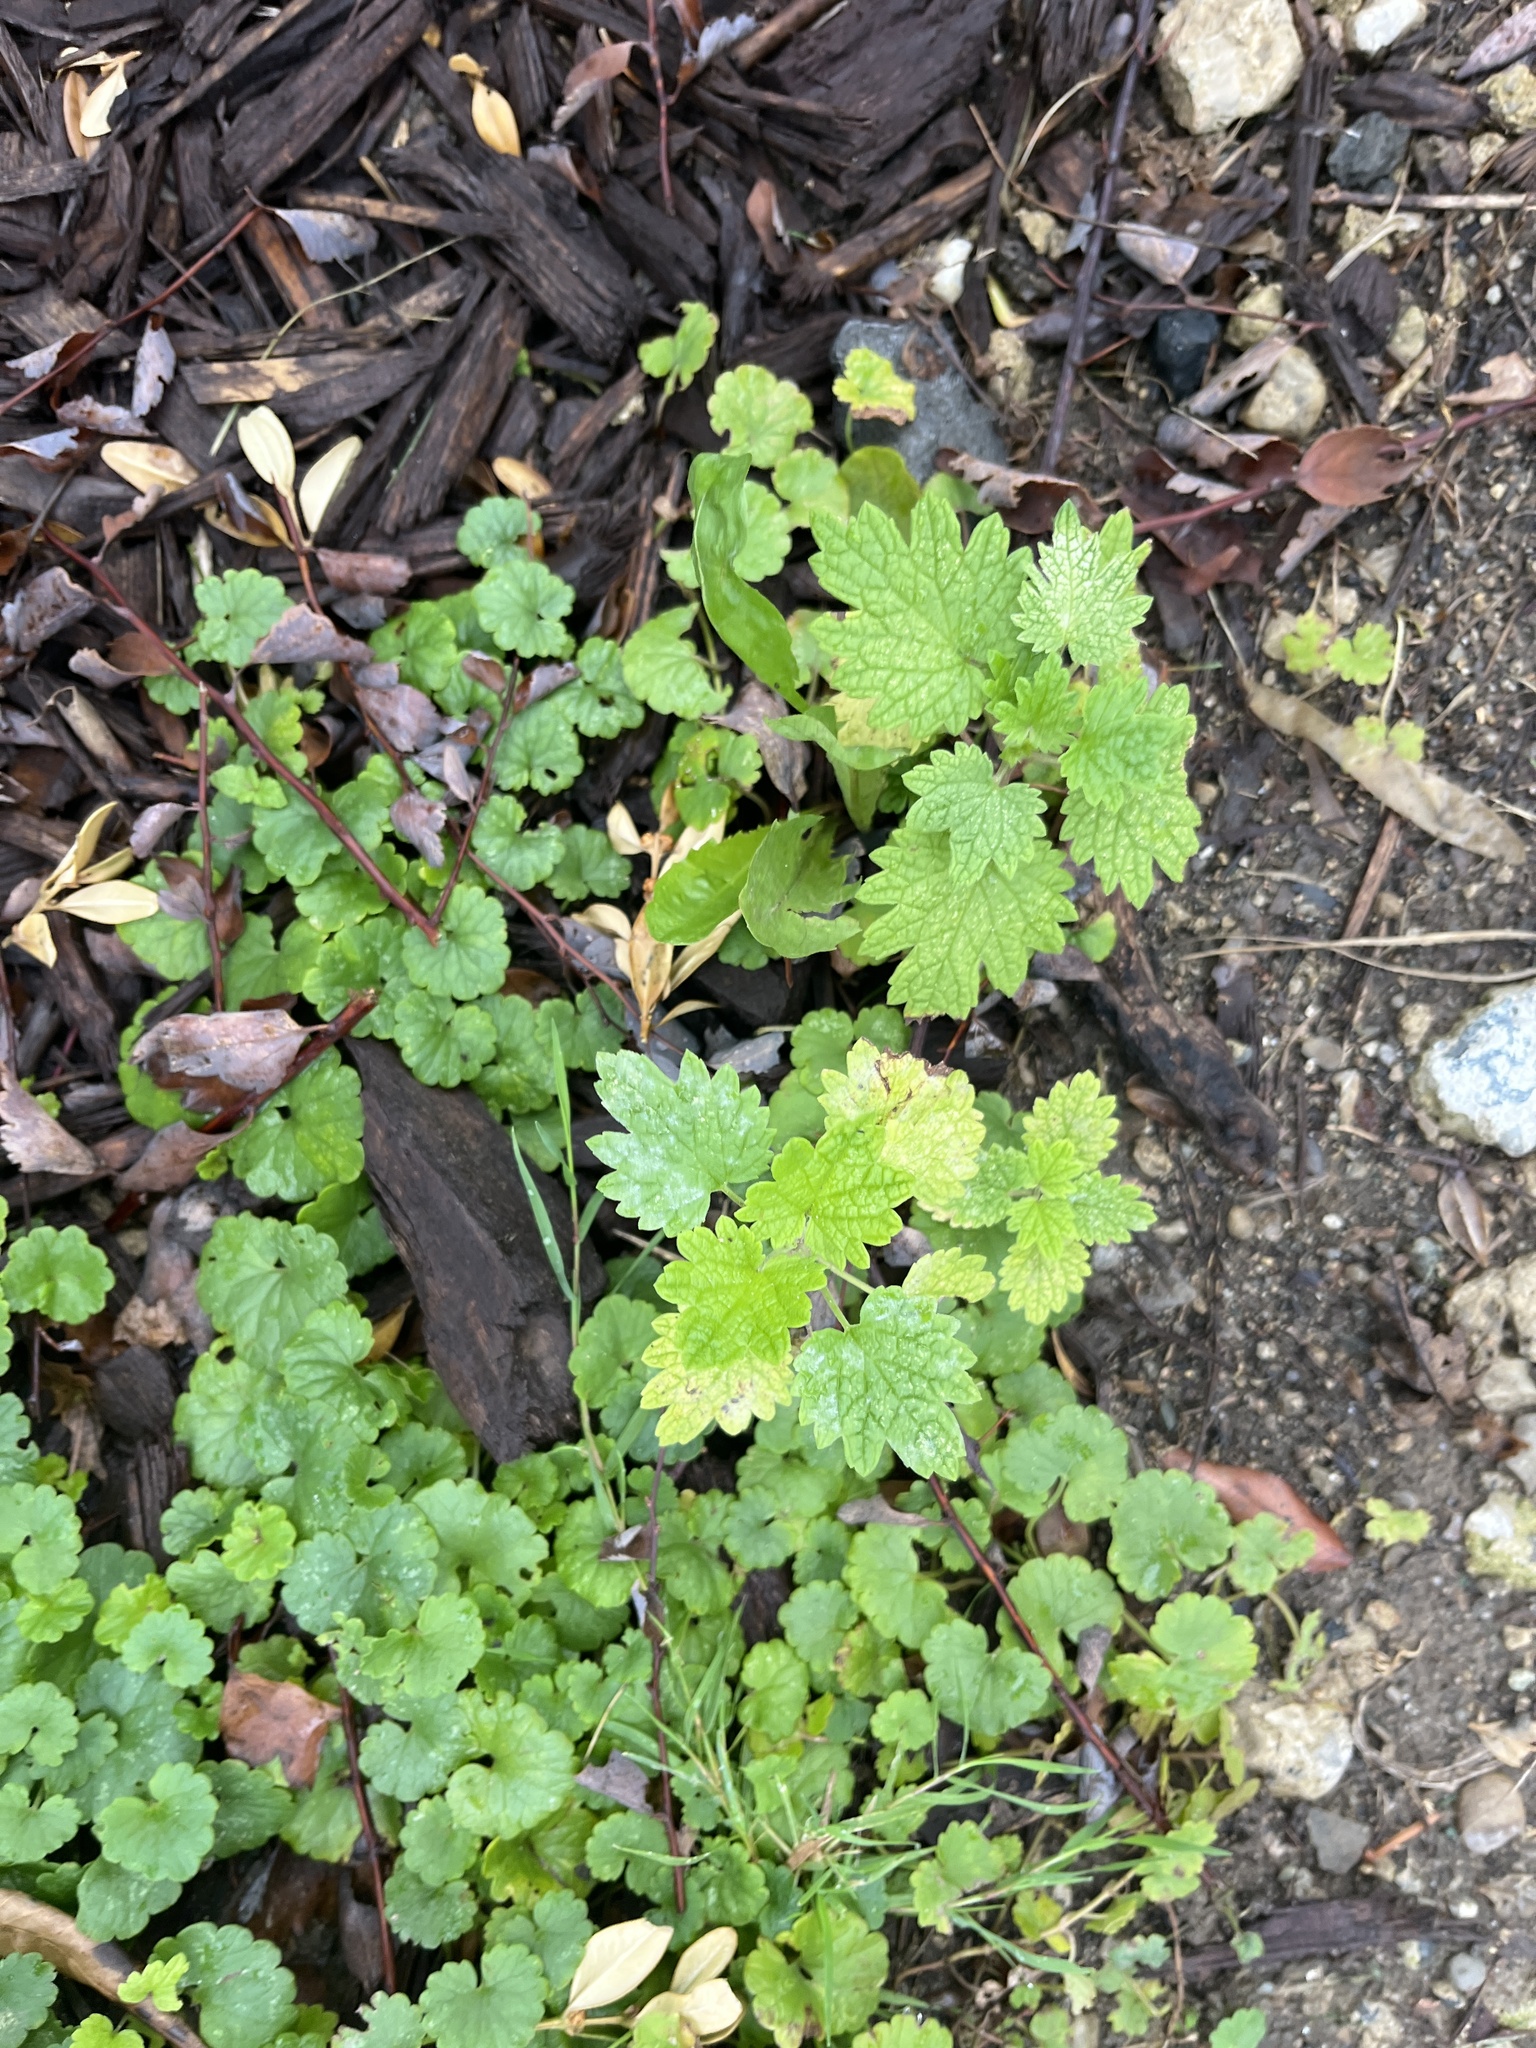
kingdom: Plantae
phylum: Tracheophyta
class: Magnoliopsida
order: Lamiales
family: Lamiaceae
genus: Leonurus
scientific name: Leonurus cardiaca
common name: Motherwort
